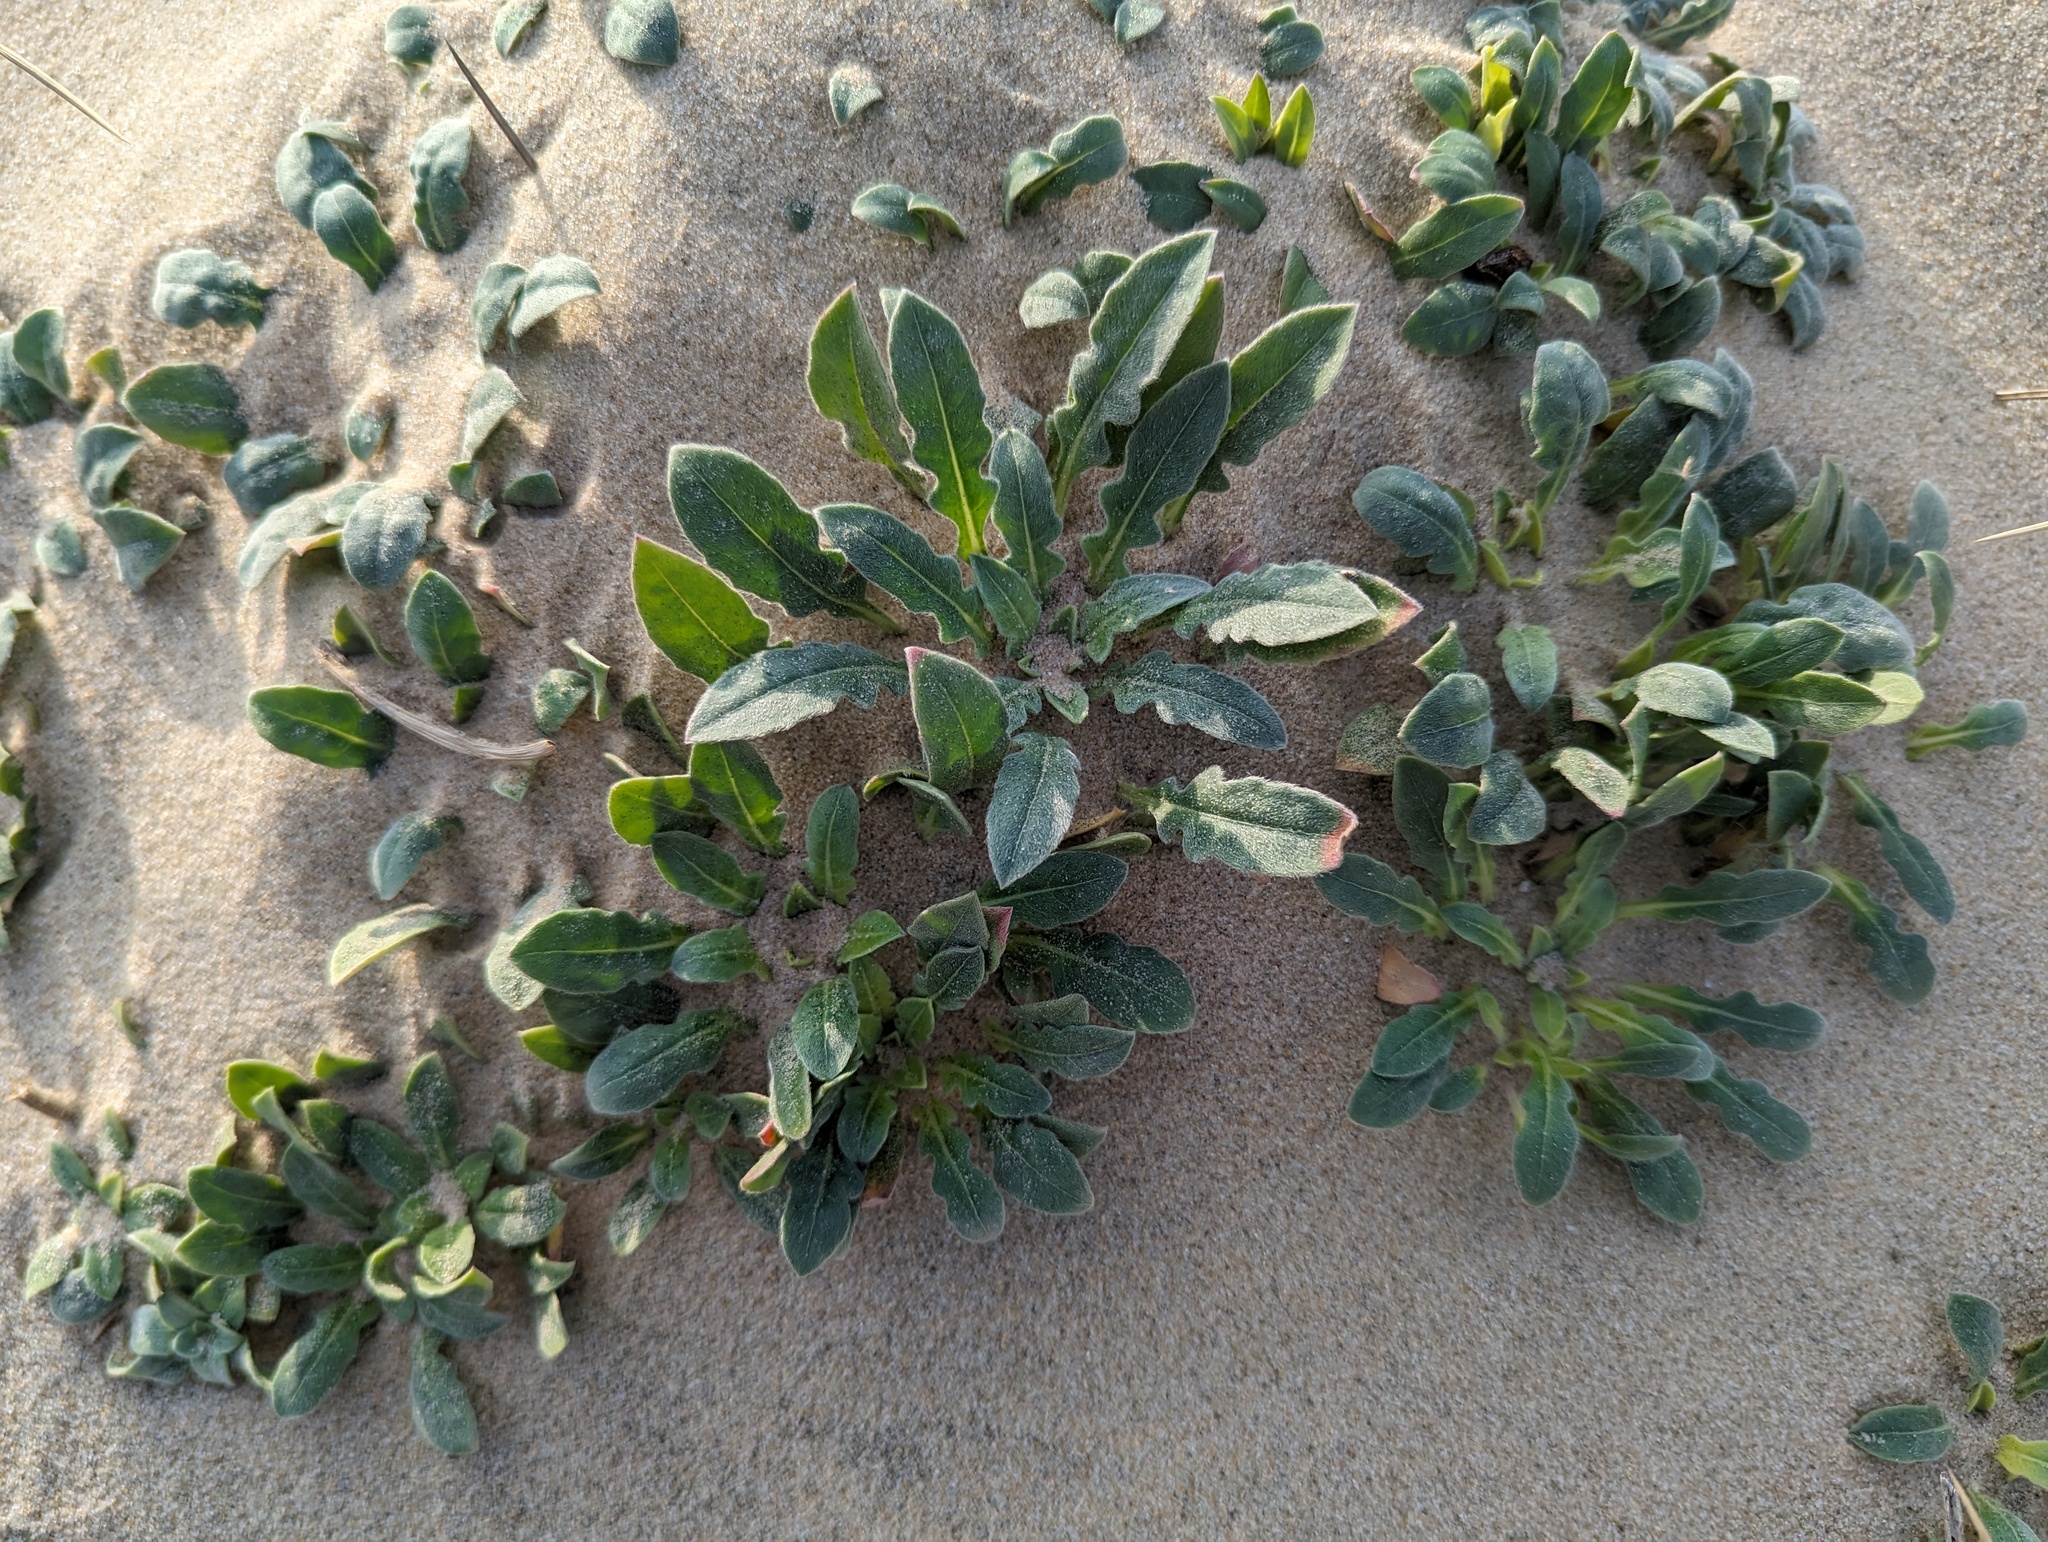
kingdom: Plantae
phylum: Tracheophyta
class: Magnoliopsida
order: Myrtales
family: Onagraceae
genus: Oenothera
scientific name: Oenothera drummondii
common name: Beach evening-primrose
